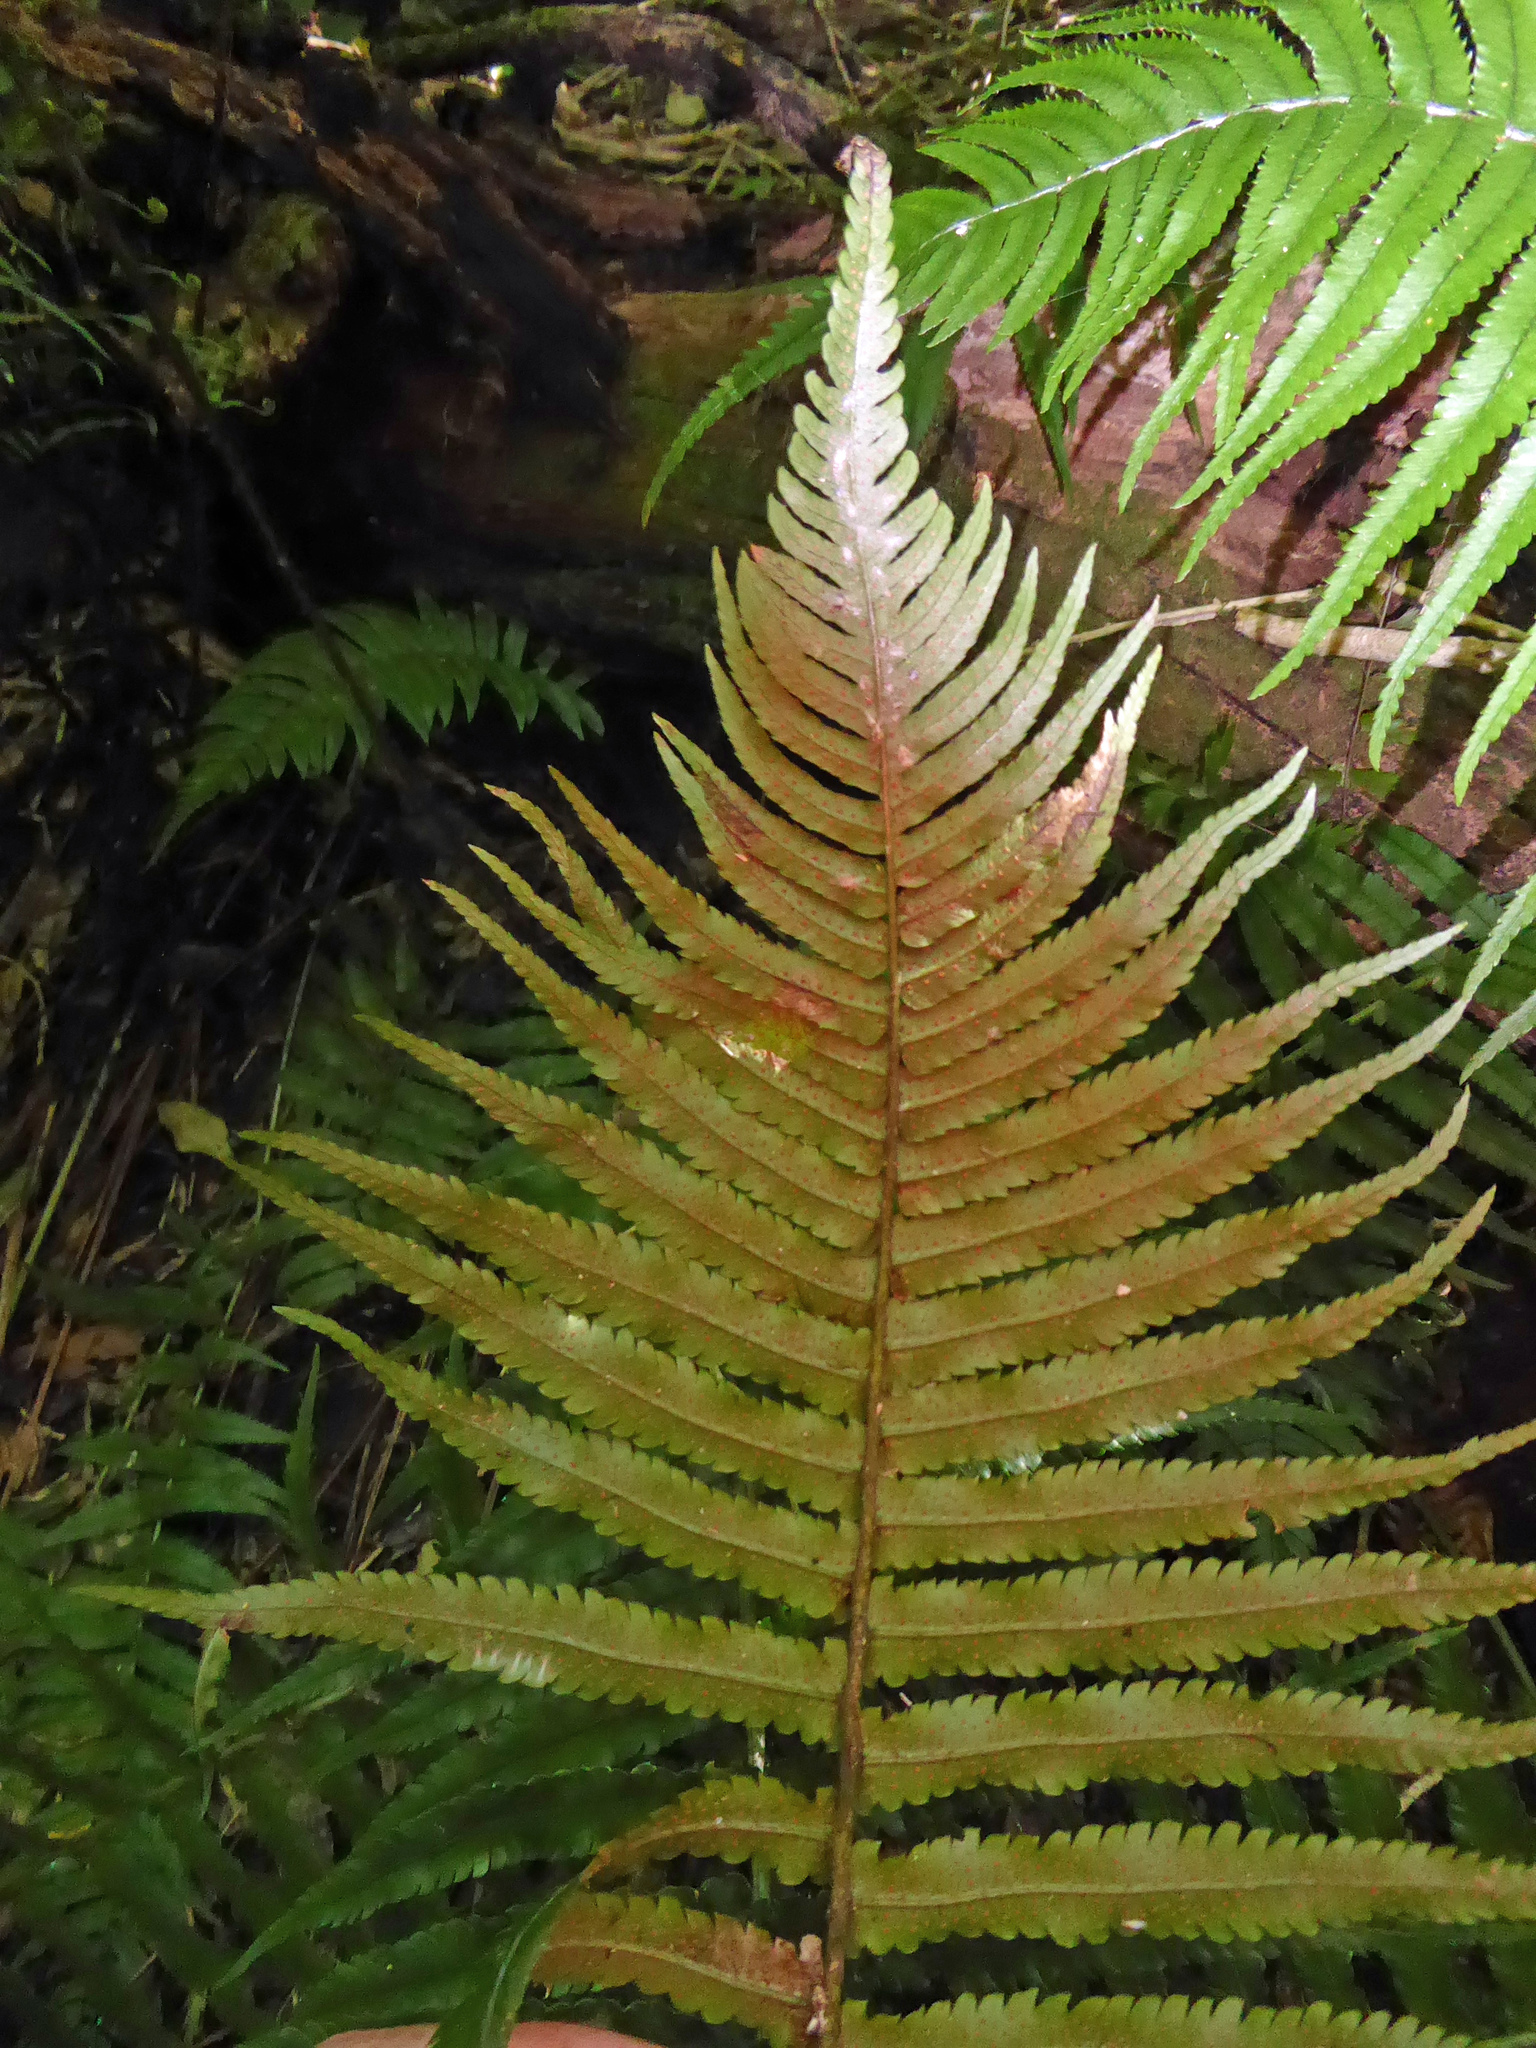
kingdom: Plantae
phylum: Tracheophyta
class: Polypodiopsida
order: Polypodiales
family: Dryopteridaceae
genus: Dryopteris
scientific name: Dryopteris cycadina
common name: Shaggy wood fern
